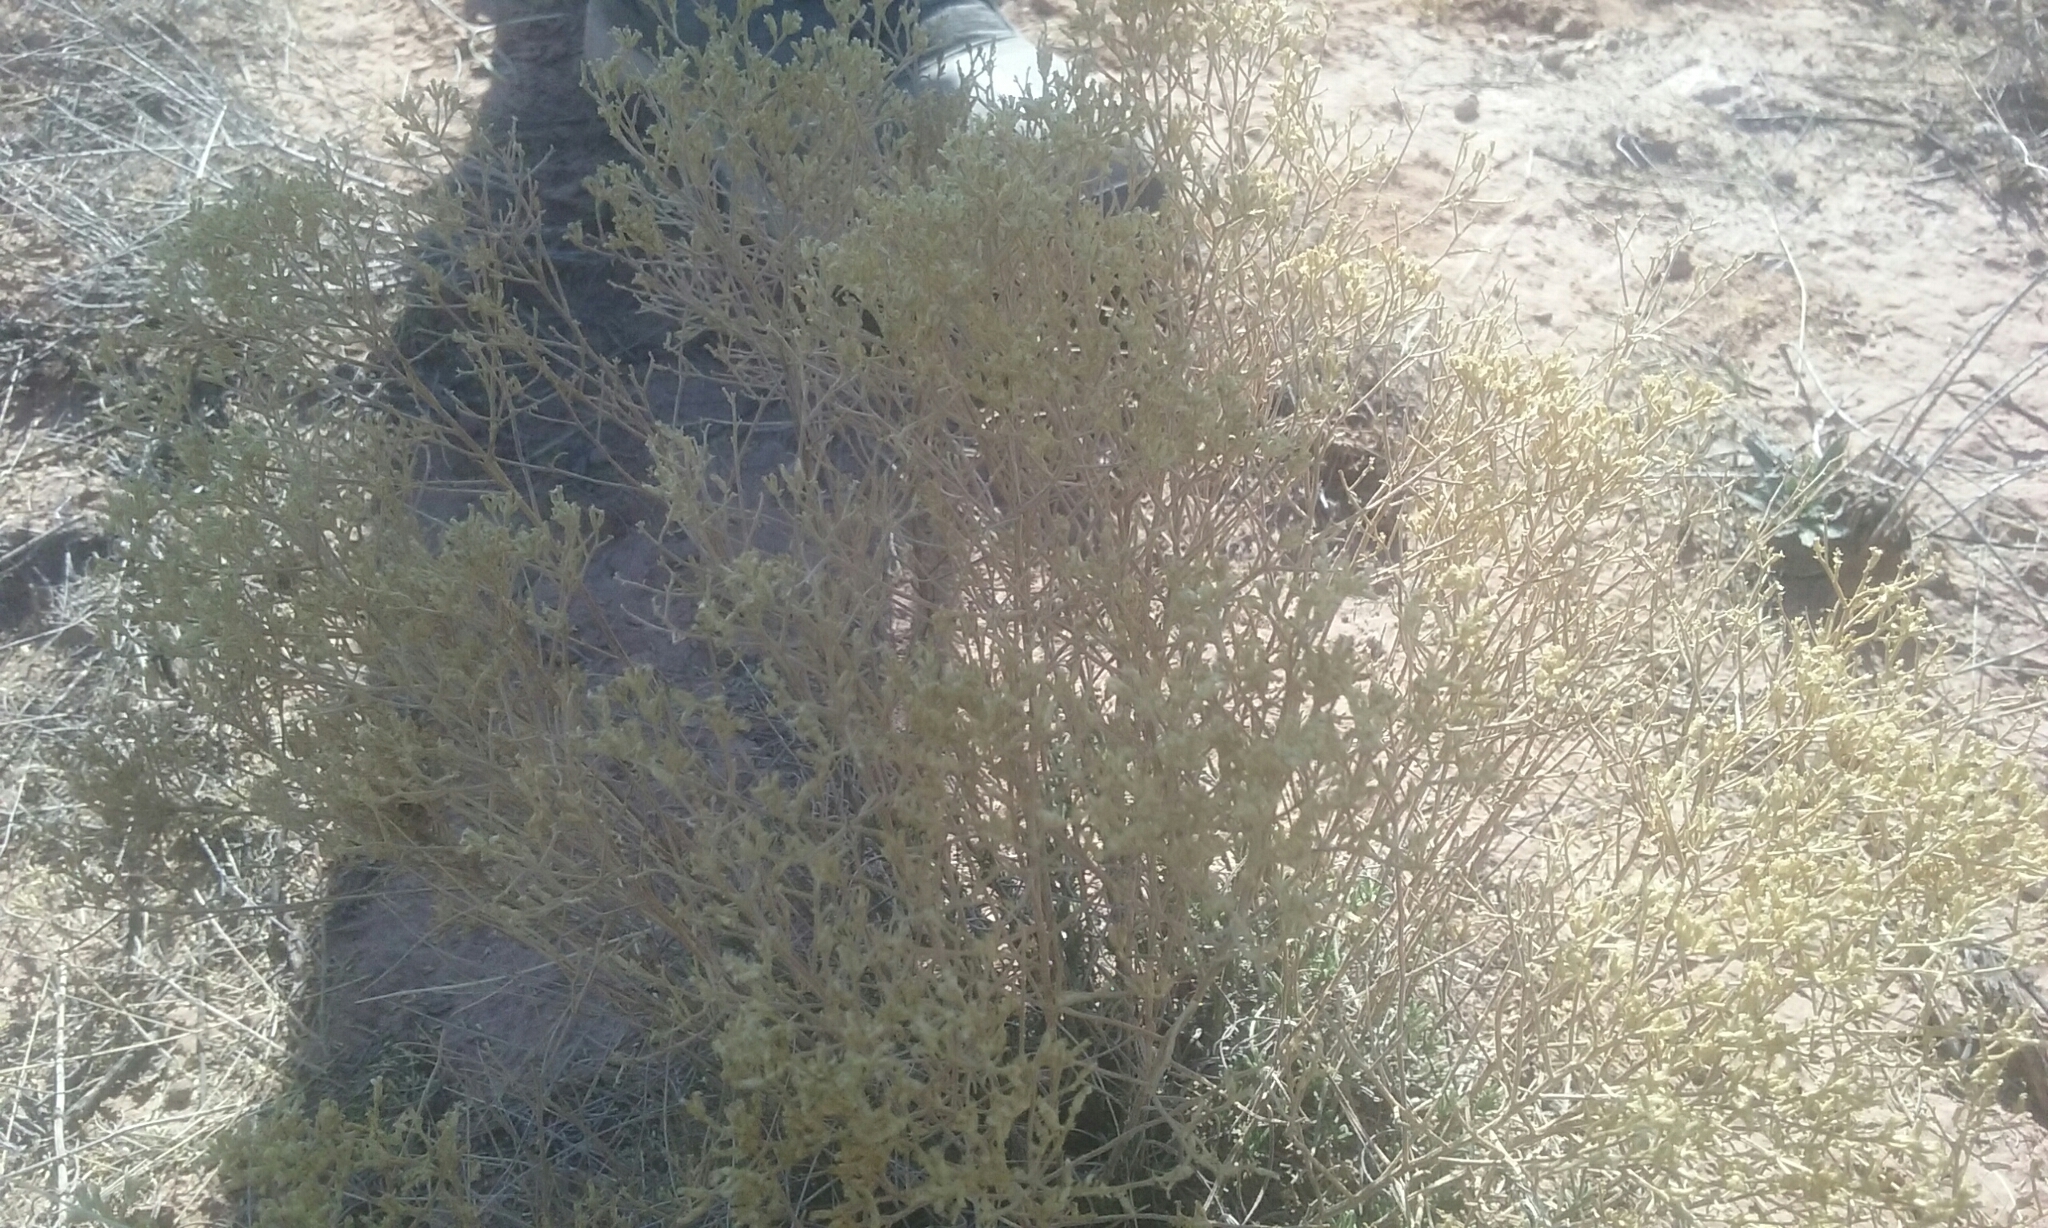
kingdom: Plantae
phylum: Tracheophyta
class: Magnoliopsida
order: Asterales
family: Asteraceae
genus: Gutierrezia
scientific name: Gutierrezia sarothrae
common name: Broom snakeweed
